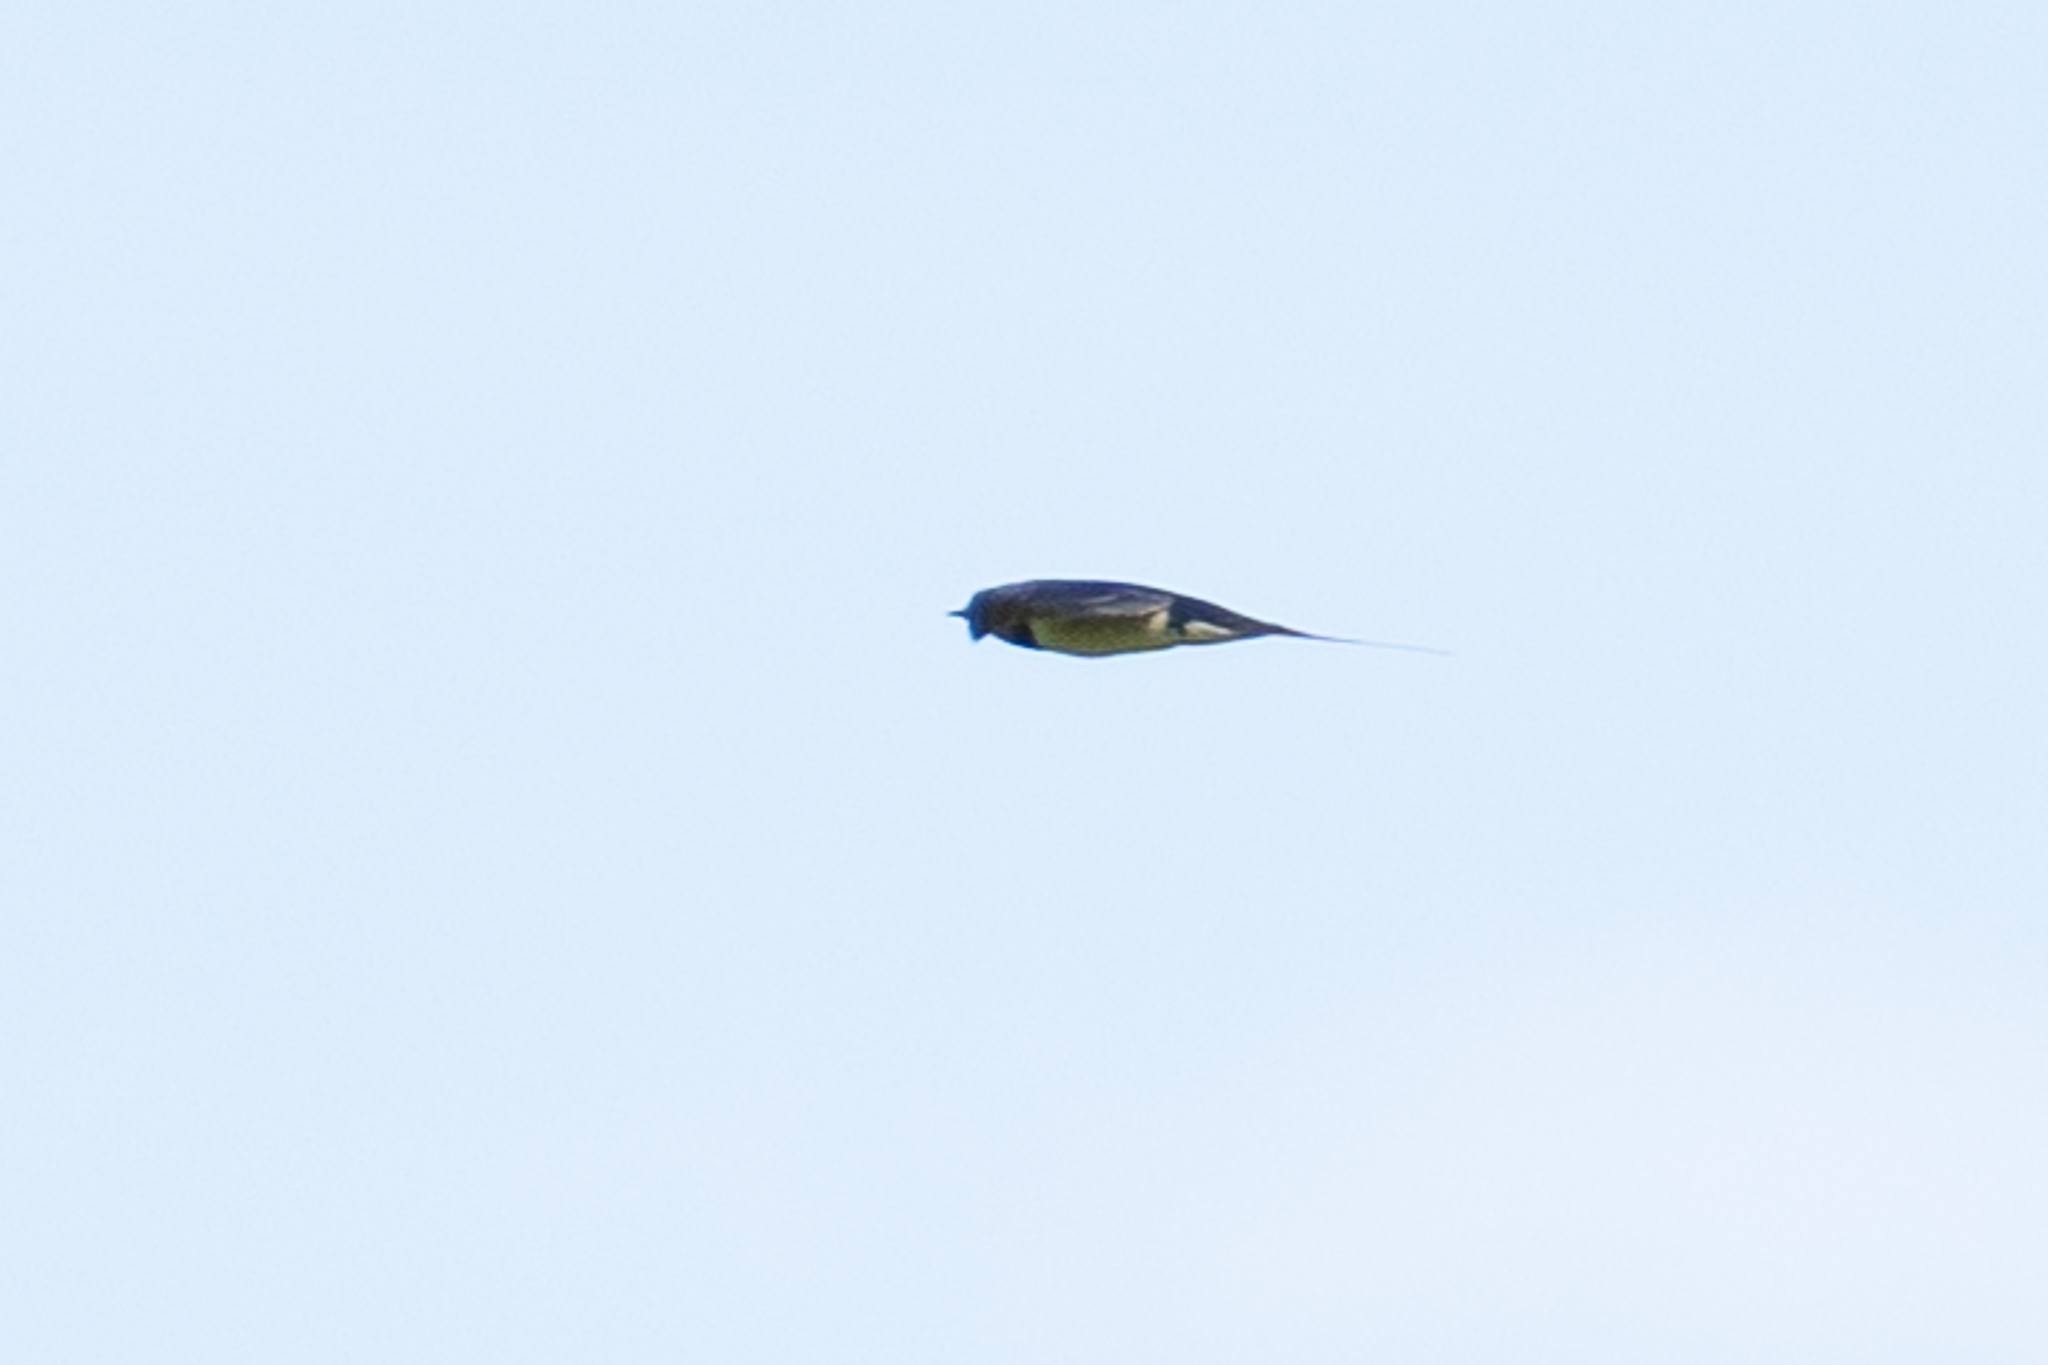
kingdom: Animalia
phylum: Chordata
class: Aves
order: Passeriformes
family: Hirundinidae
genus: Hirundo
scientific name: Hirundo rustica
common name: Barn swallow
